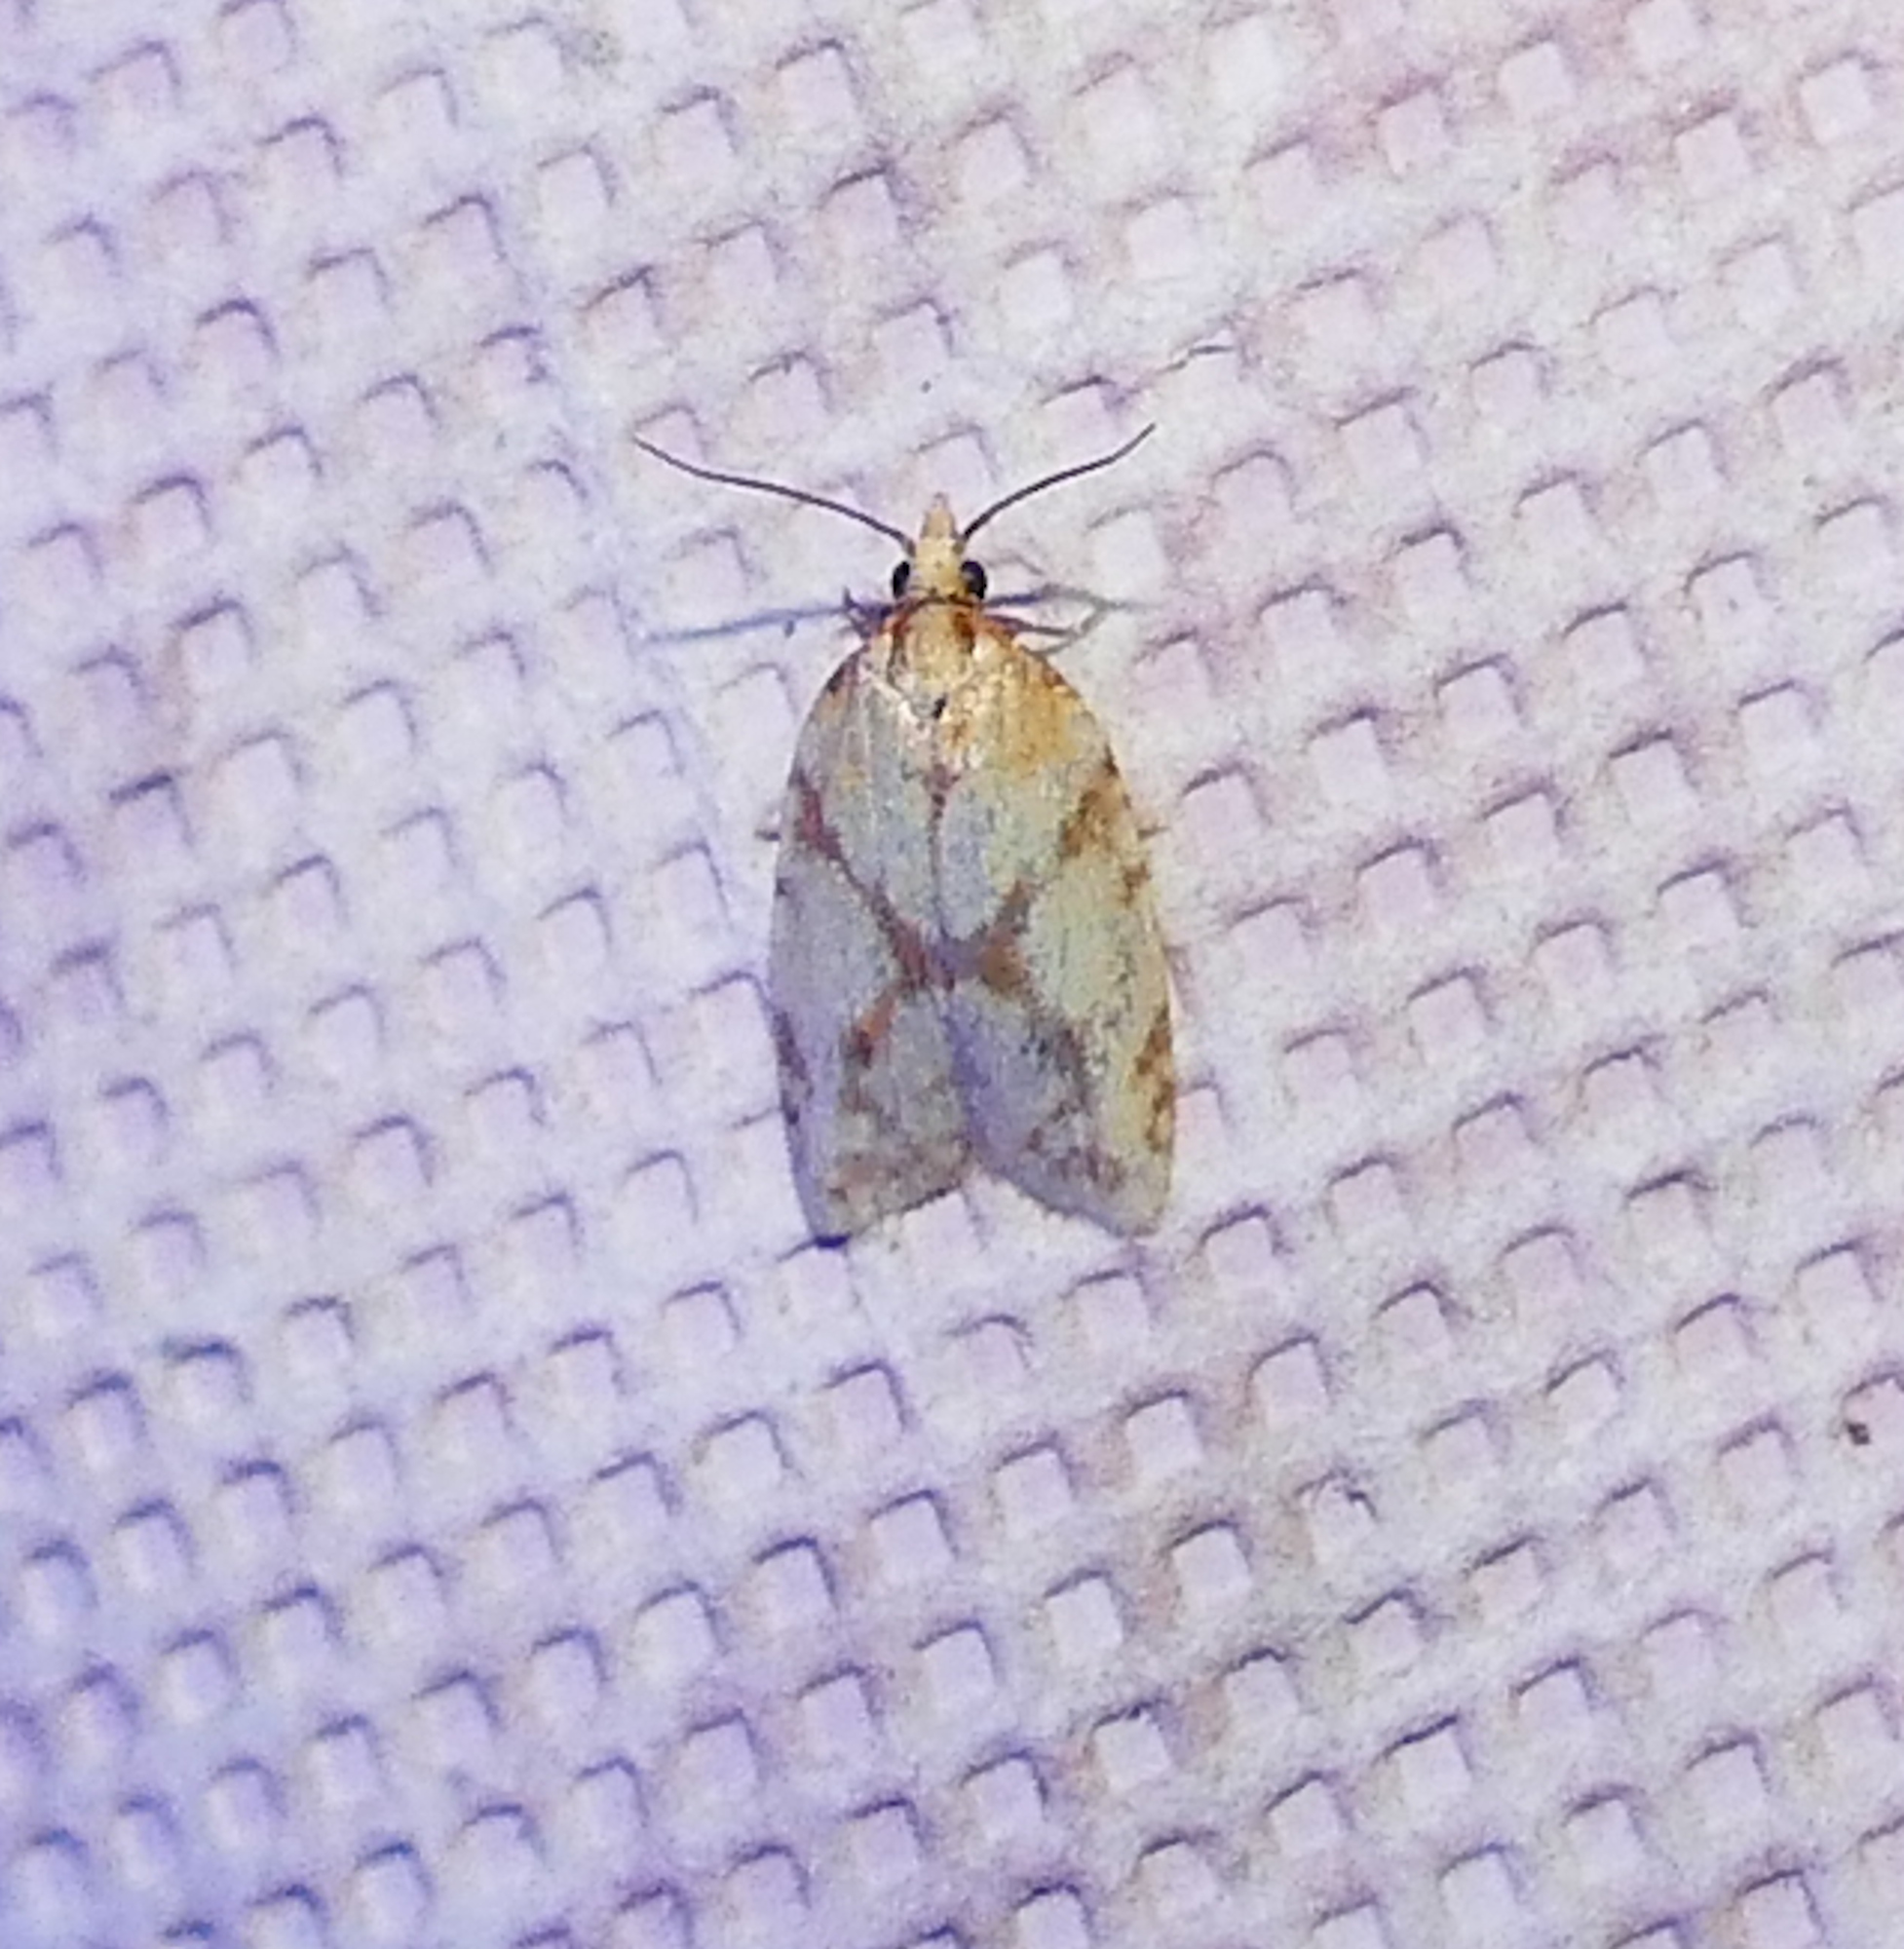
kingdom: Animalia
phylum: Arthropoda
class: Insecta
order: Lepidoptera
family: Tortricidae
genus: Sparganothis
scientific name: Sparganothis sulfureana
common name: Sparganothis fruitworm moth
